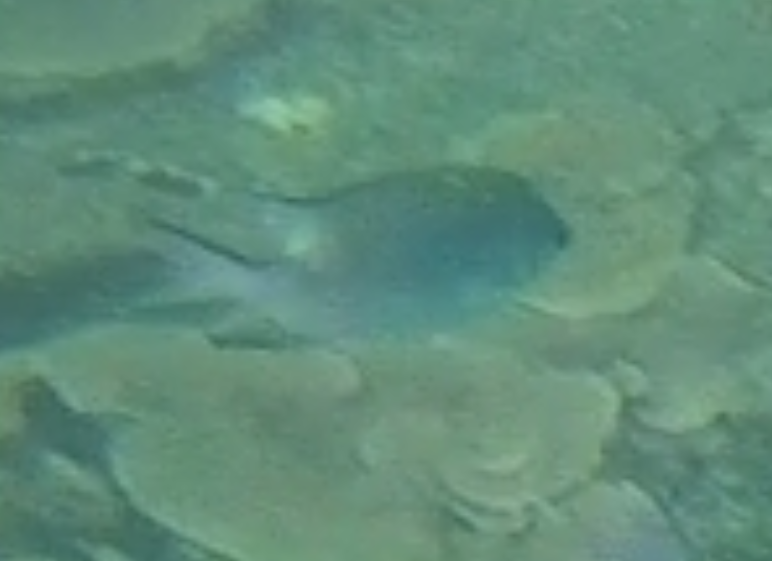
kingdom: Animalia
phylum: Chordata
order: Perciformes
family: Pomacentridae
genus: Amblyglyphidodon
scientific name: Amblyglyphidodon indicus
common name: Maldives damselfish
